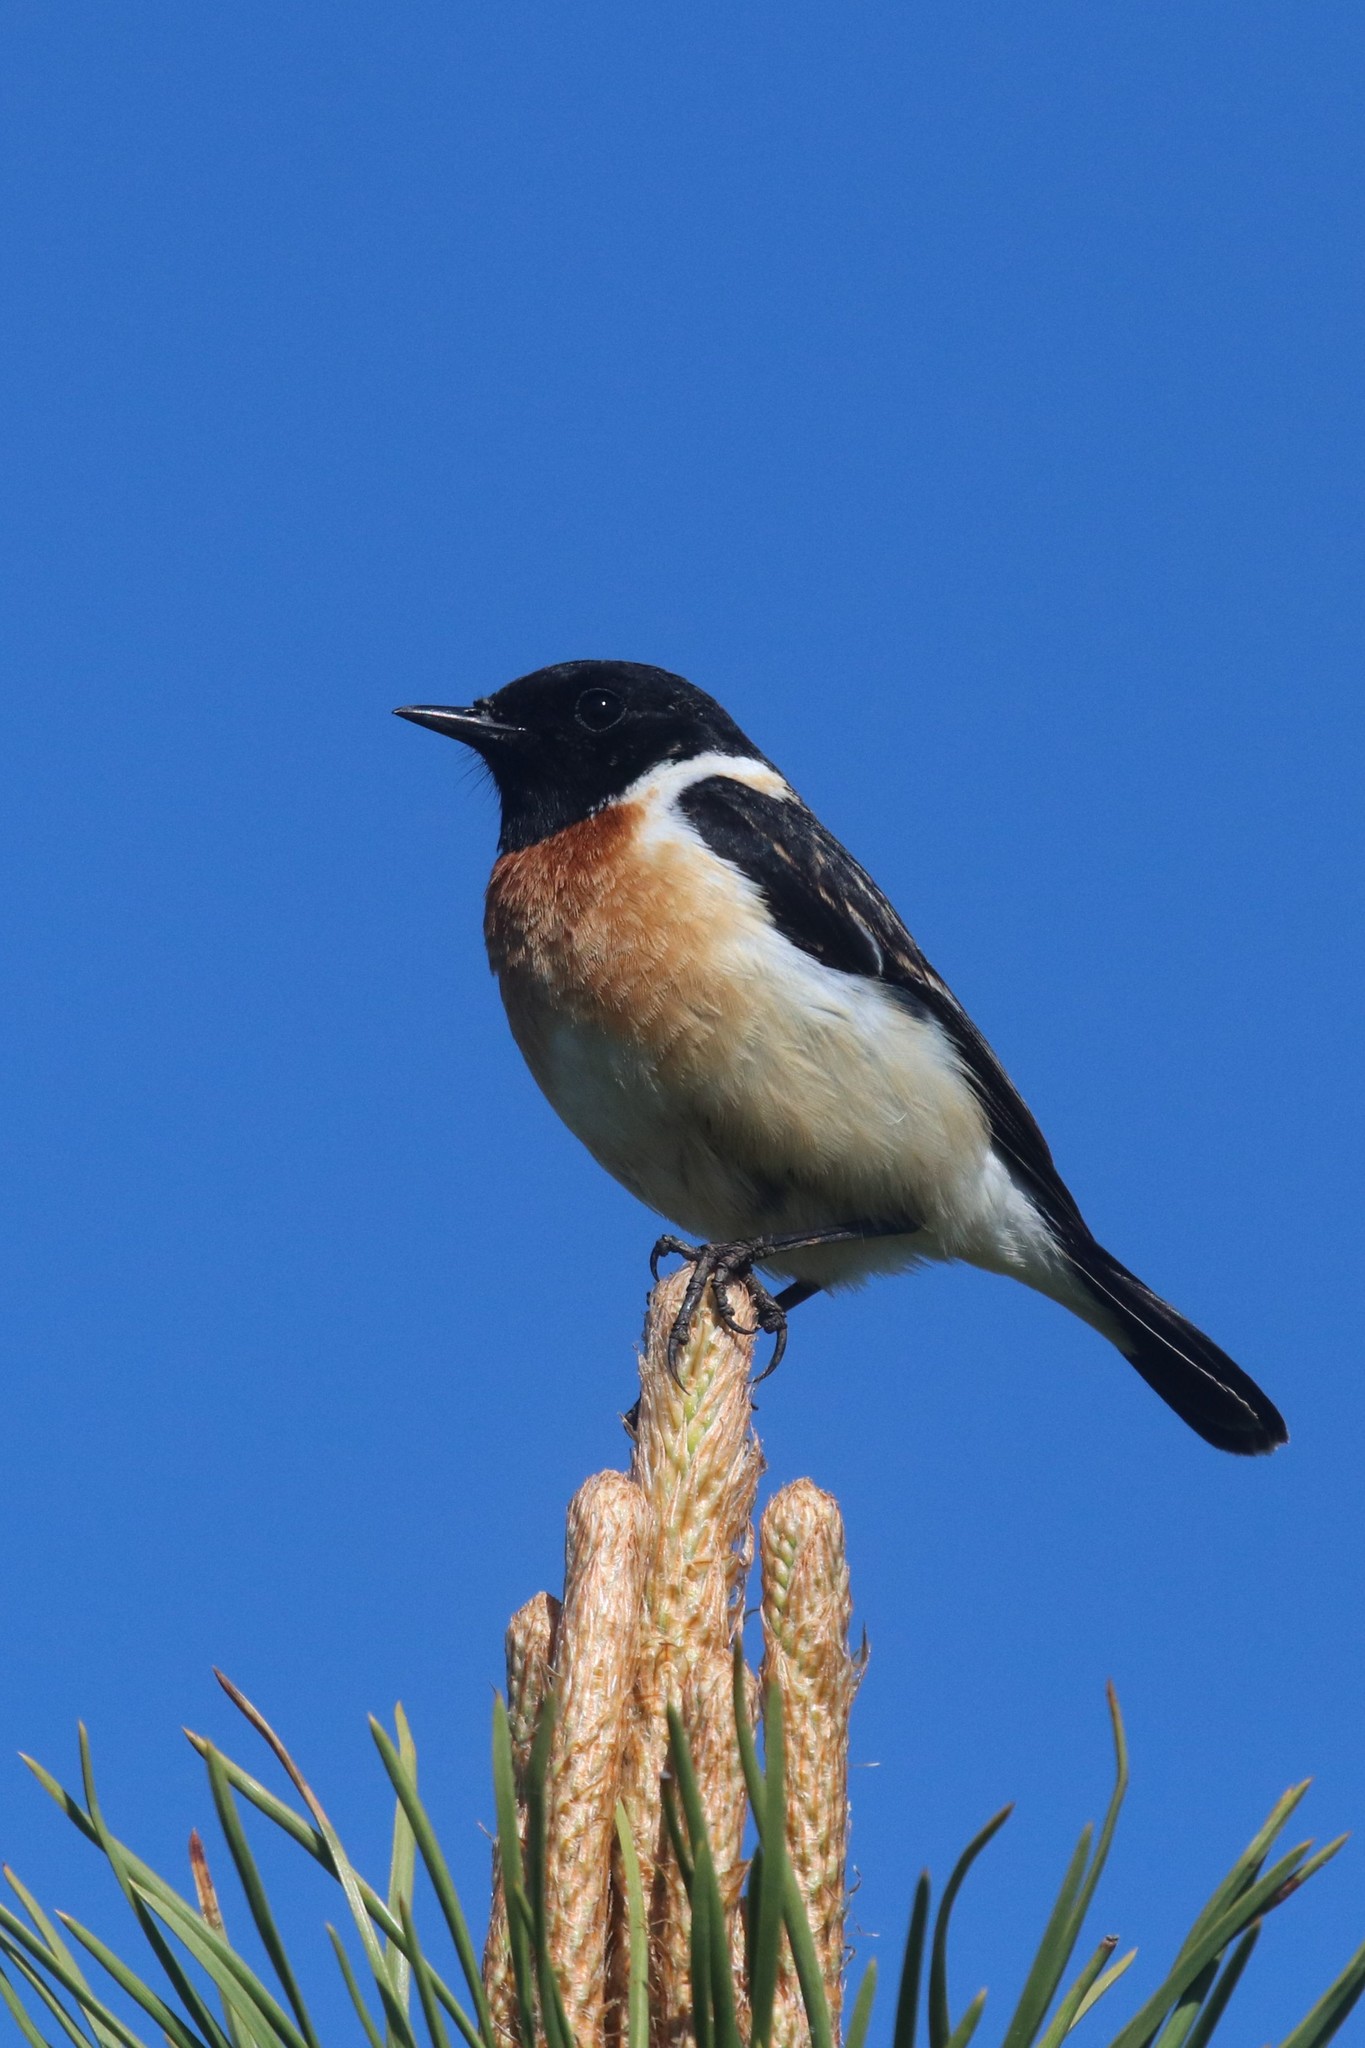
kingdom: Animalia
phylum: Chordata
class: Aves
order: Passeriformes
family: Muscicapidae
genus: Saxicola
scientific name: Saxicola maurus
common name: Siberian stonechat
